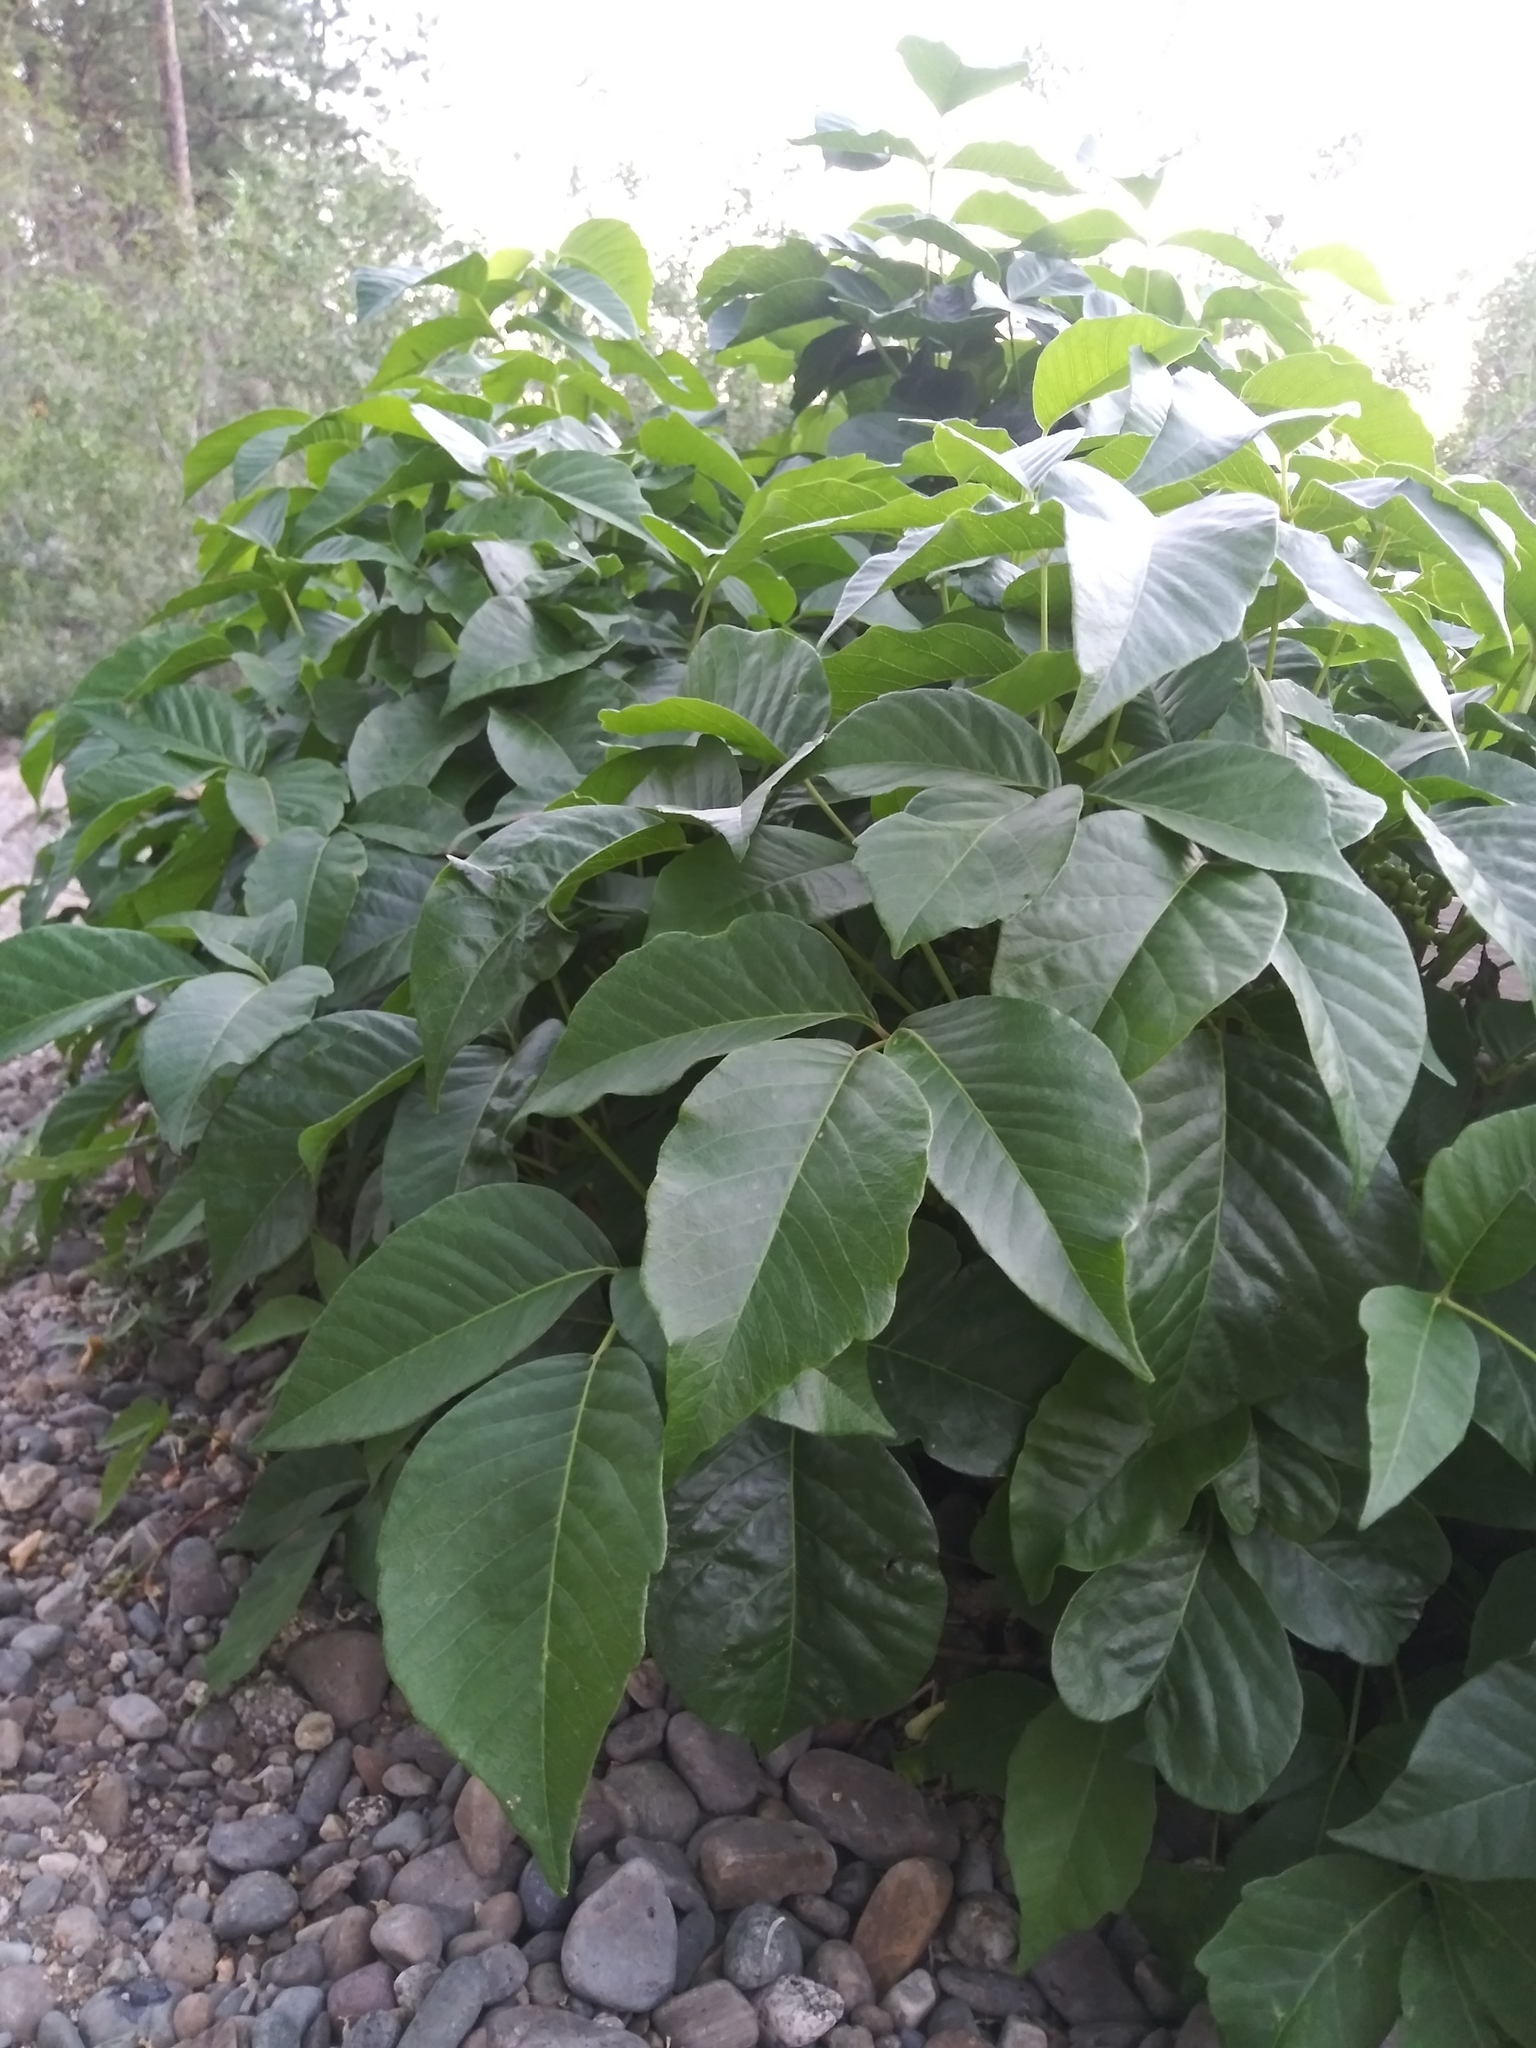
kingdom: Plantae
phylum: Tracheophyta
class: Magnoliopsida
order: Sapindales
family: Anacardiaceae
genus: Toxicodendron
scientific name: Toxicodendron rydbergii
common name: Rydberg's poison-ivy
